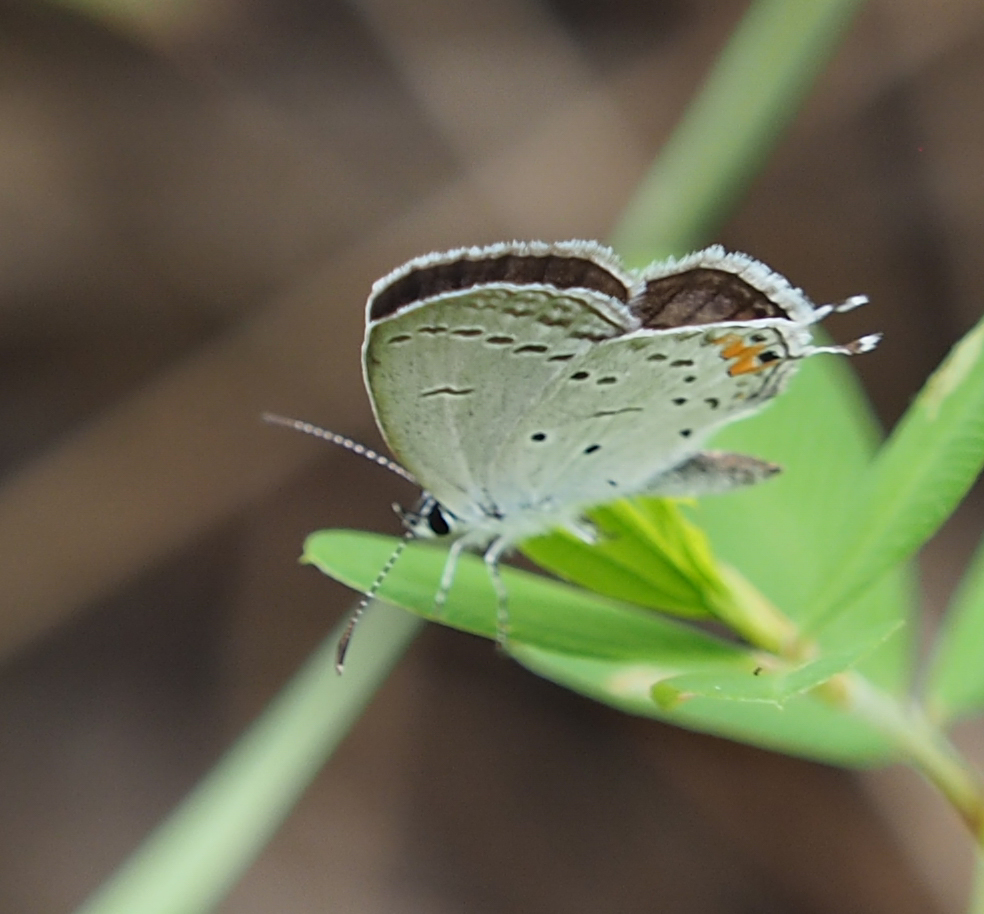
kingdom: Animalia
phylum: Arthropoda
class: Insecta
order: Lepidoptera
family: Lycaenidae
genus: Elkalyce
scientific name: Elkalyce comyntas
